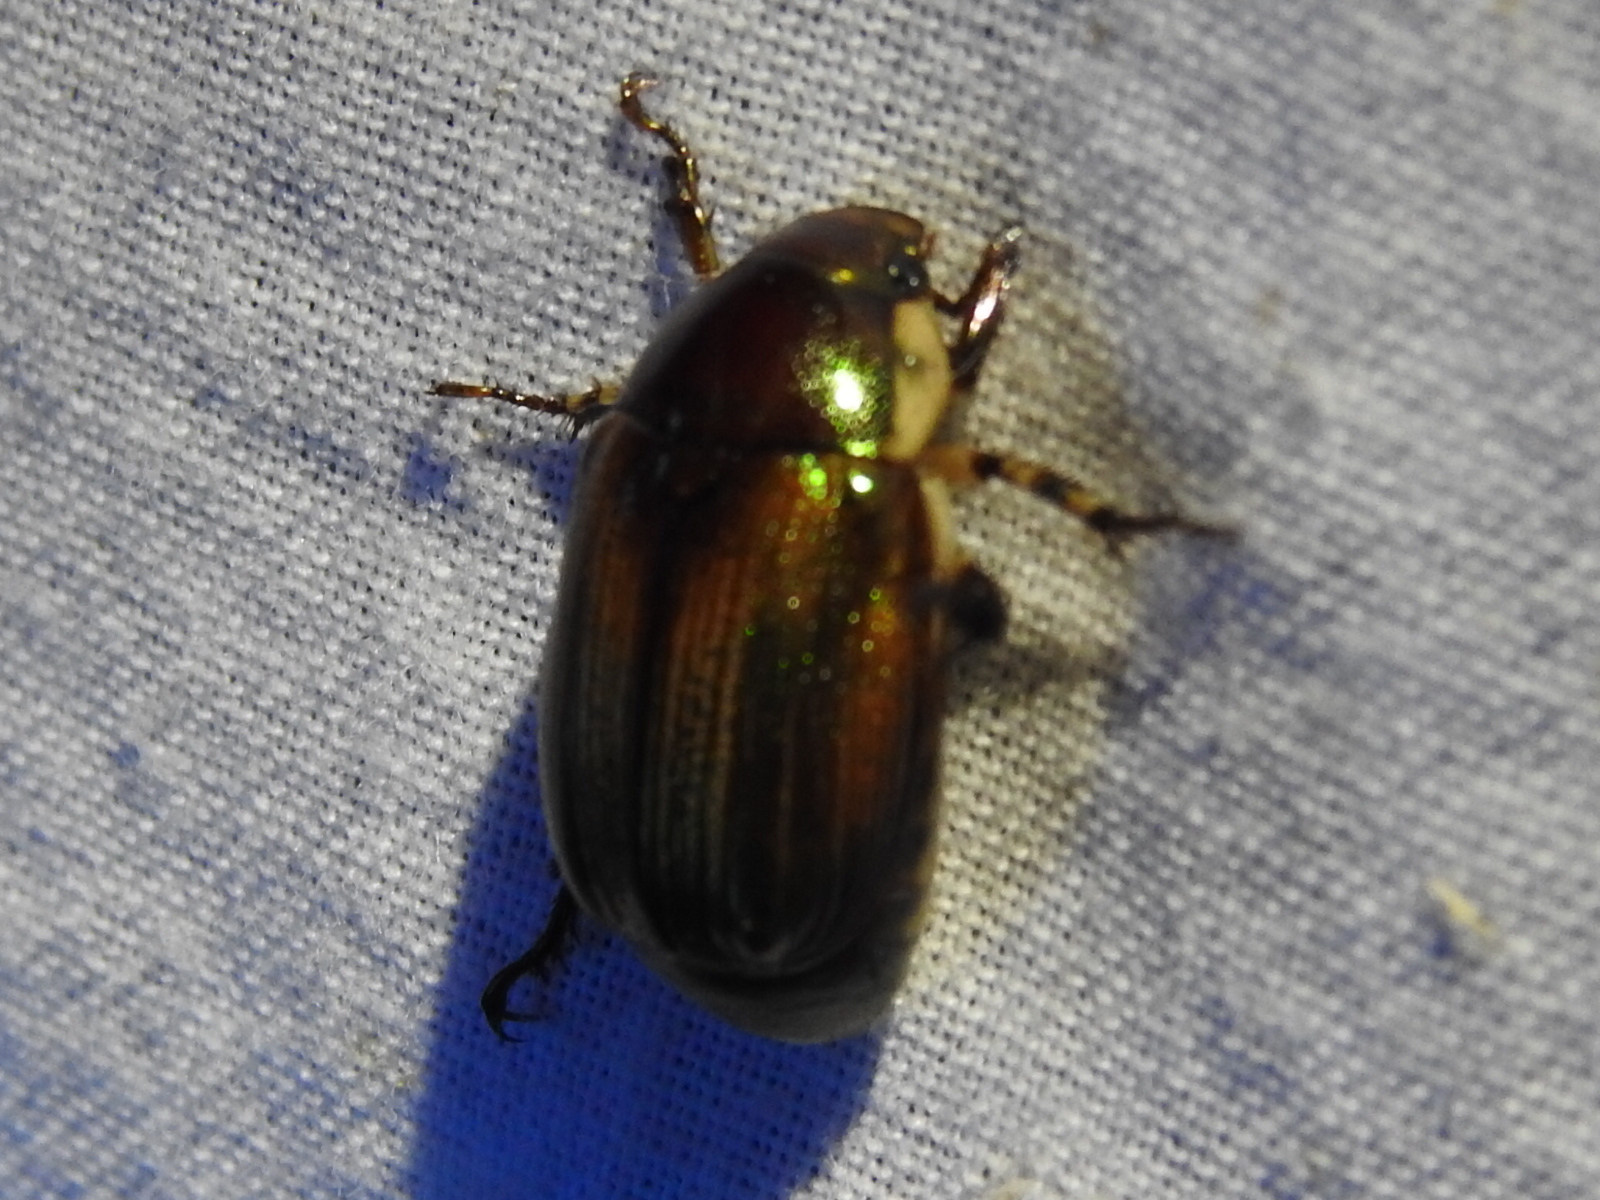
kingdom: Animalia
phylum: Arthropoda
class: Insecta
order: Coleoptera
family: Scarabaeidae
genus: Callistethus
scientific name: Callistethus marginatus
